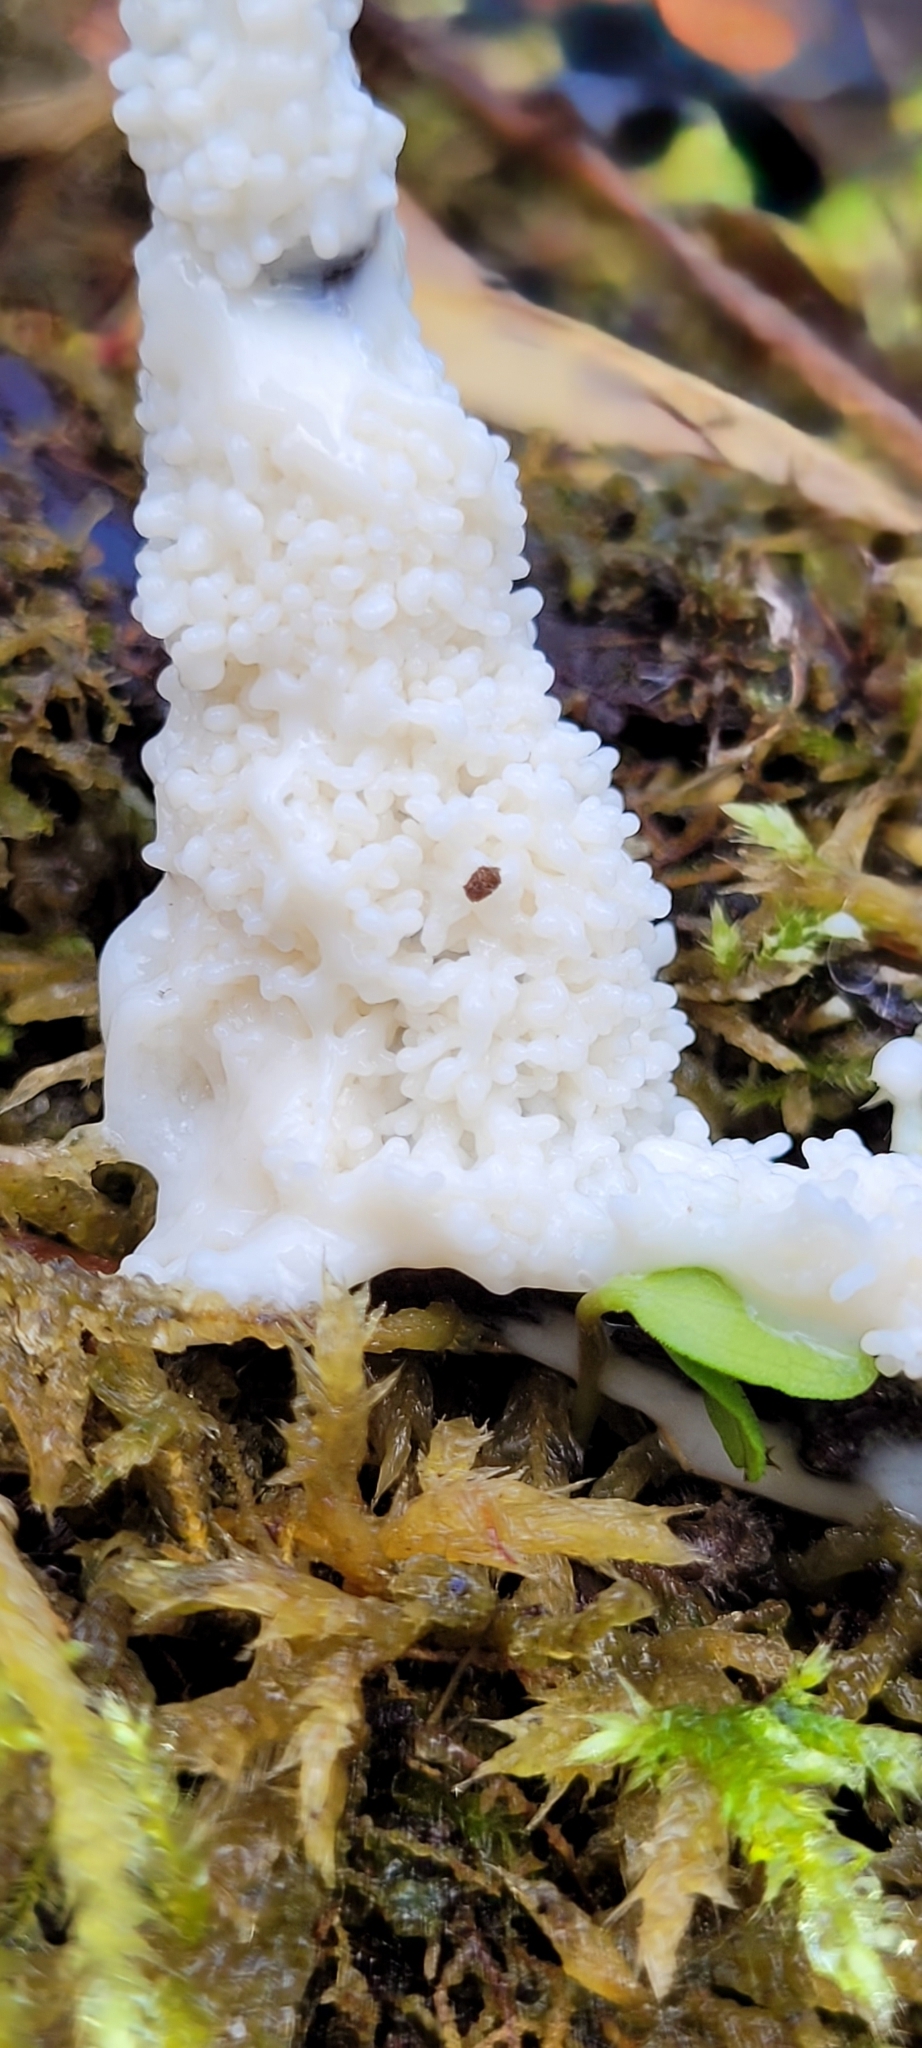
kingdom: Protozoa
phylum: Mycetozoa
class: Myxomycetes
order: Physarales
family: Physaraceae
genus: Didymium
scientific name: Didymium
